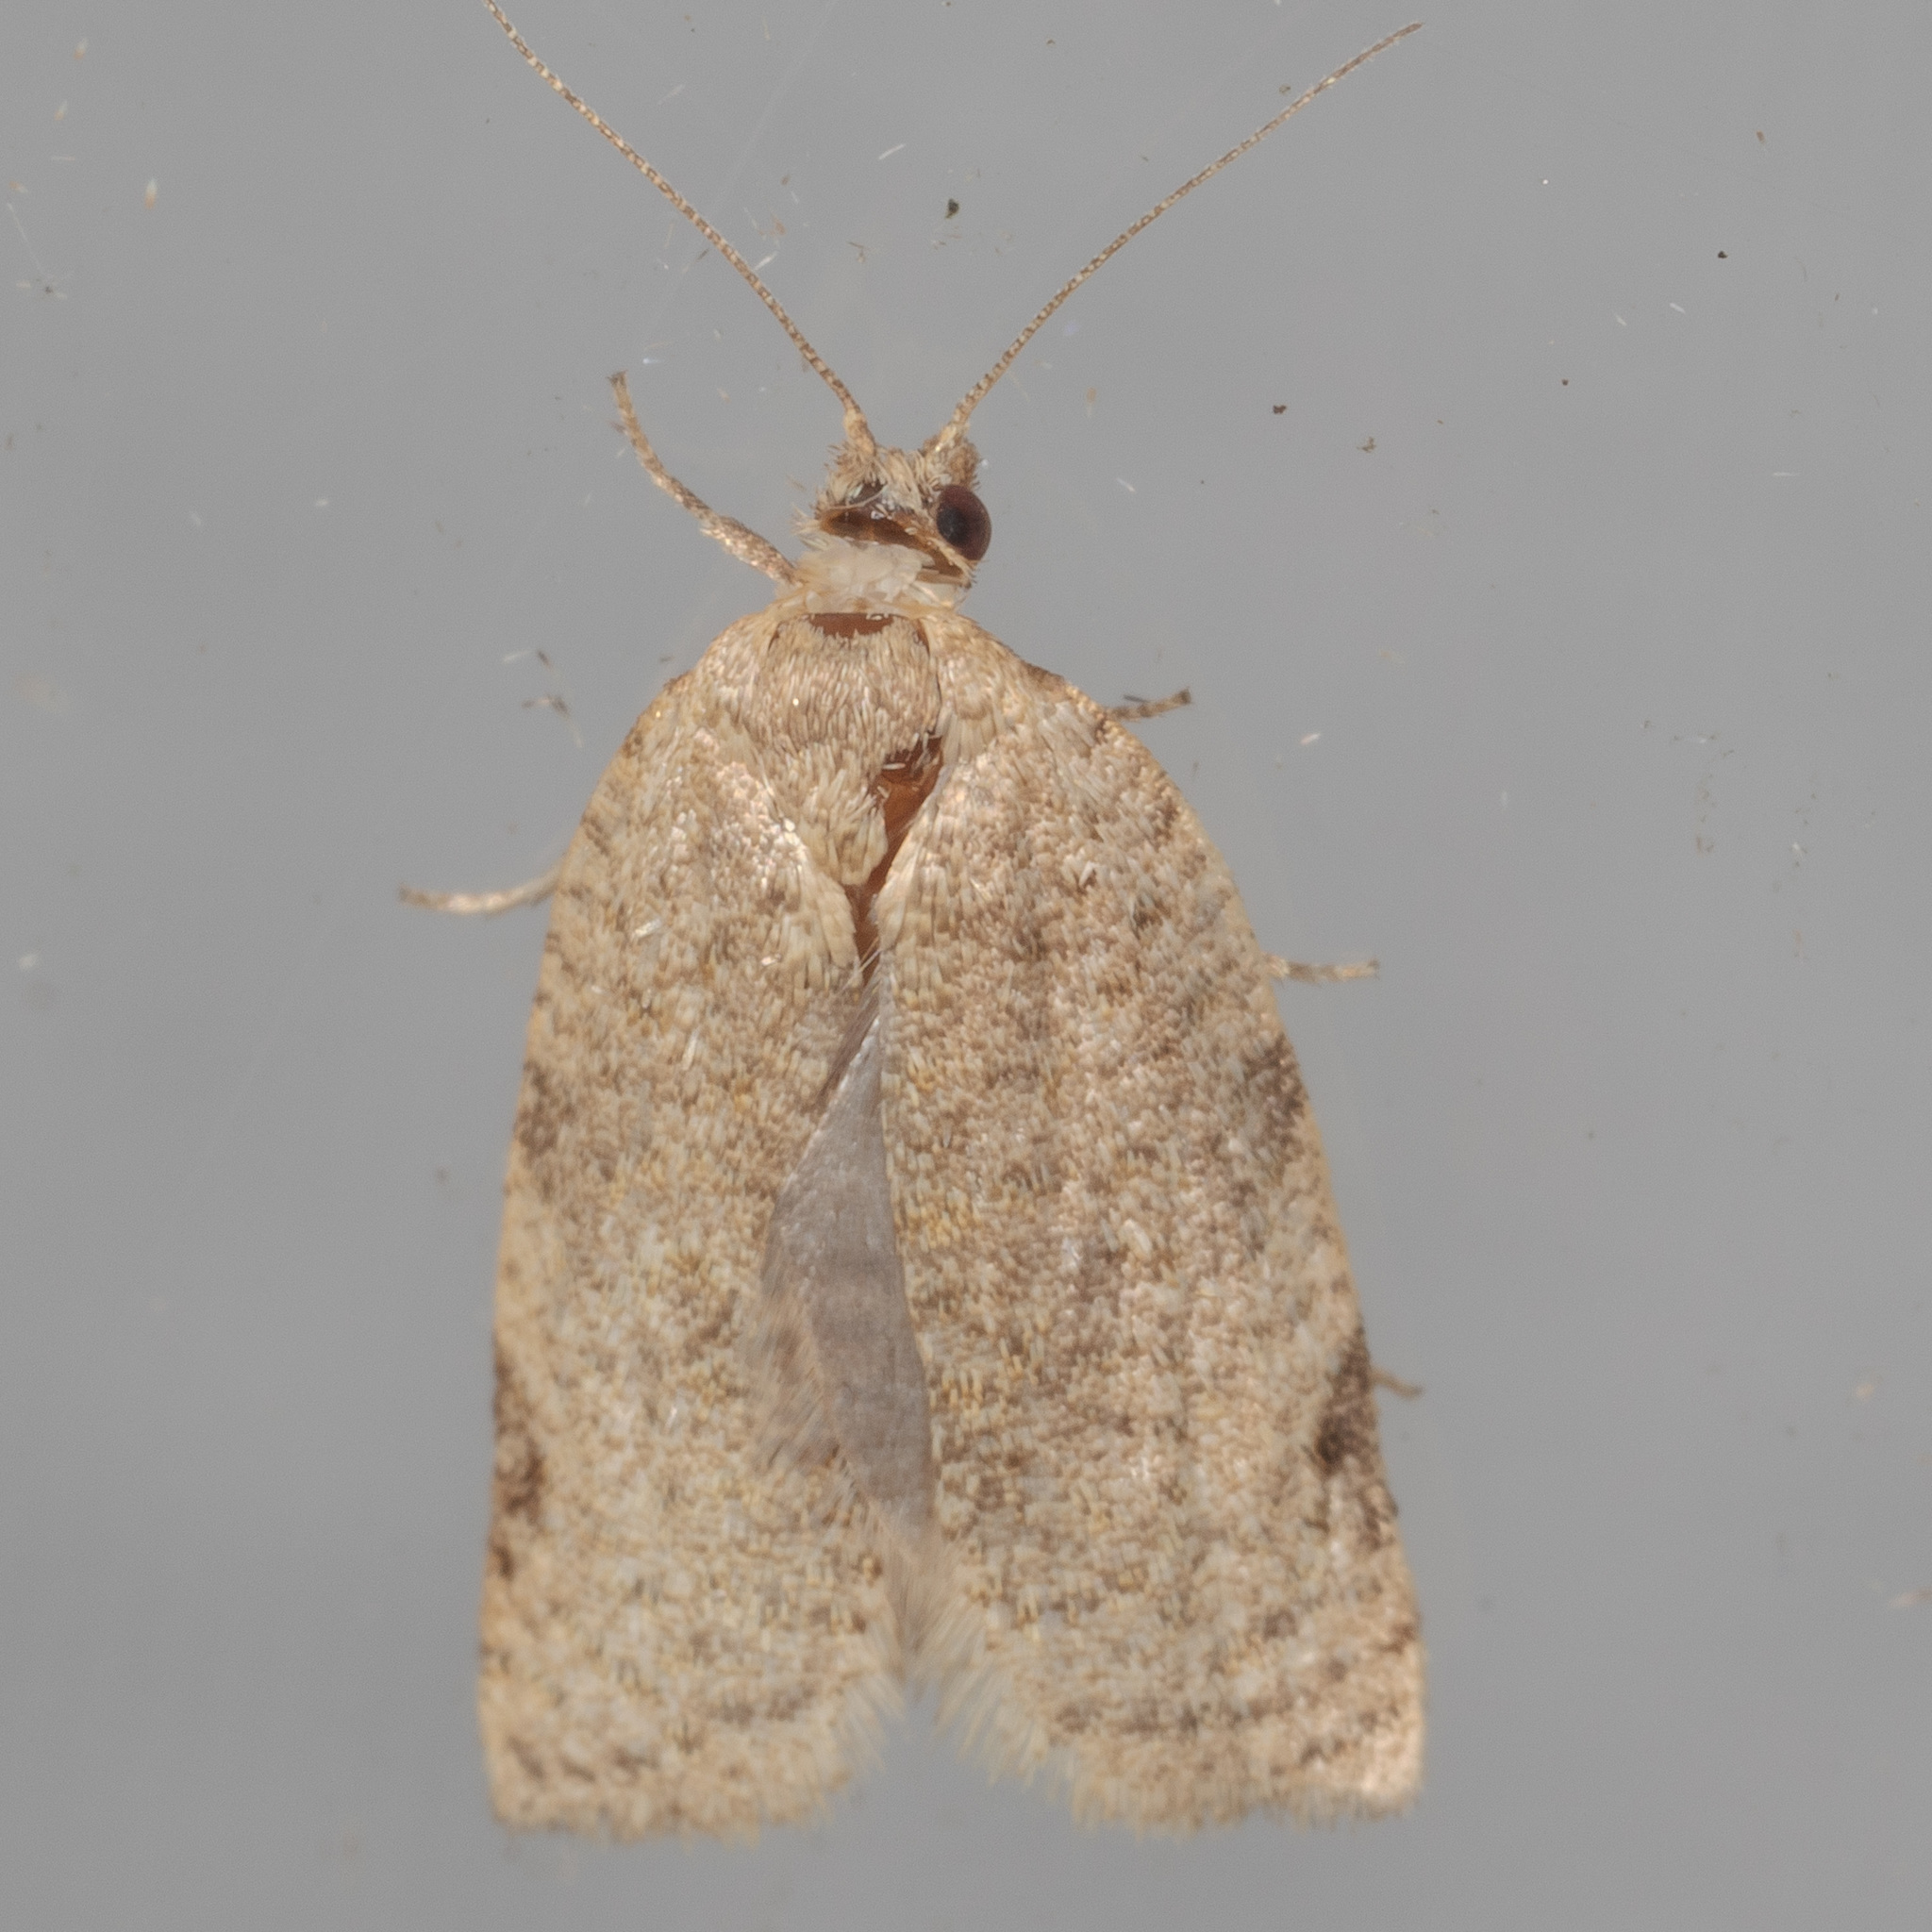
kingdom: Animalia
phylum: Arthropoda
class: Insecta
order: Lepidoptera
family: Tortricidae
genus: Clepsis
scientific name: Clepsis virescana
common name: Greenish apple moth
